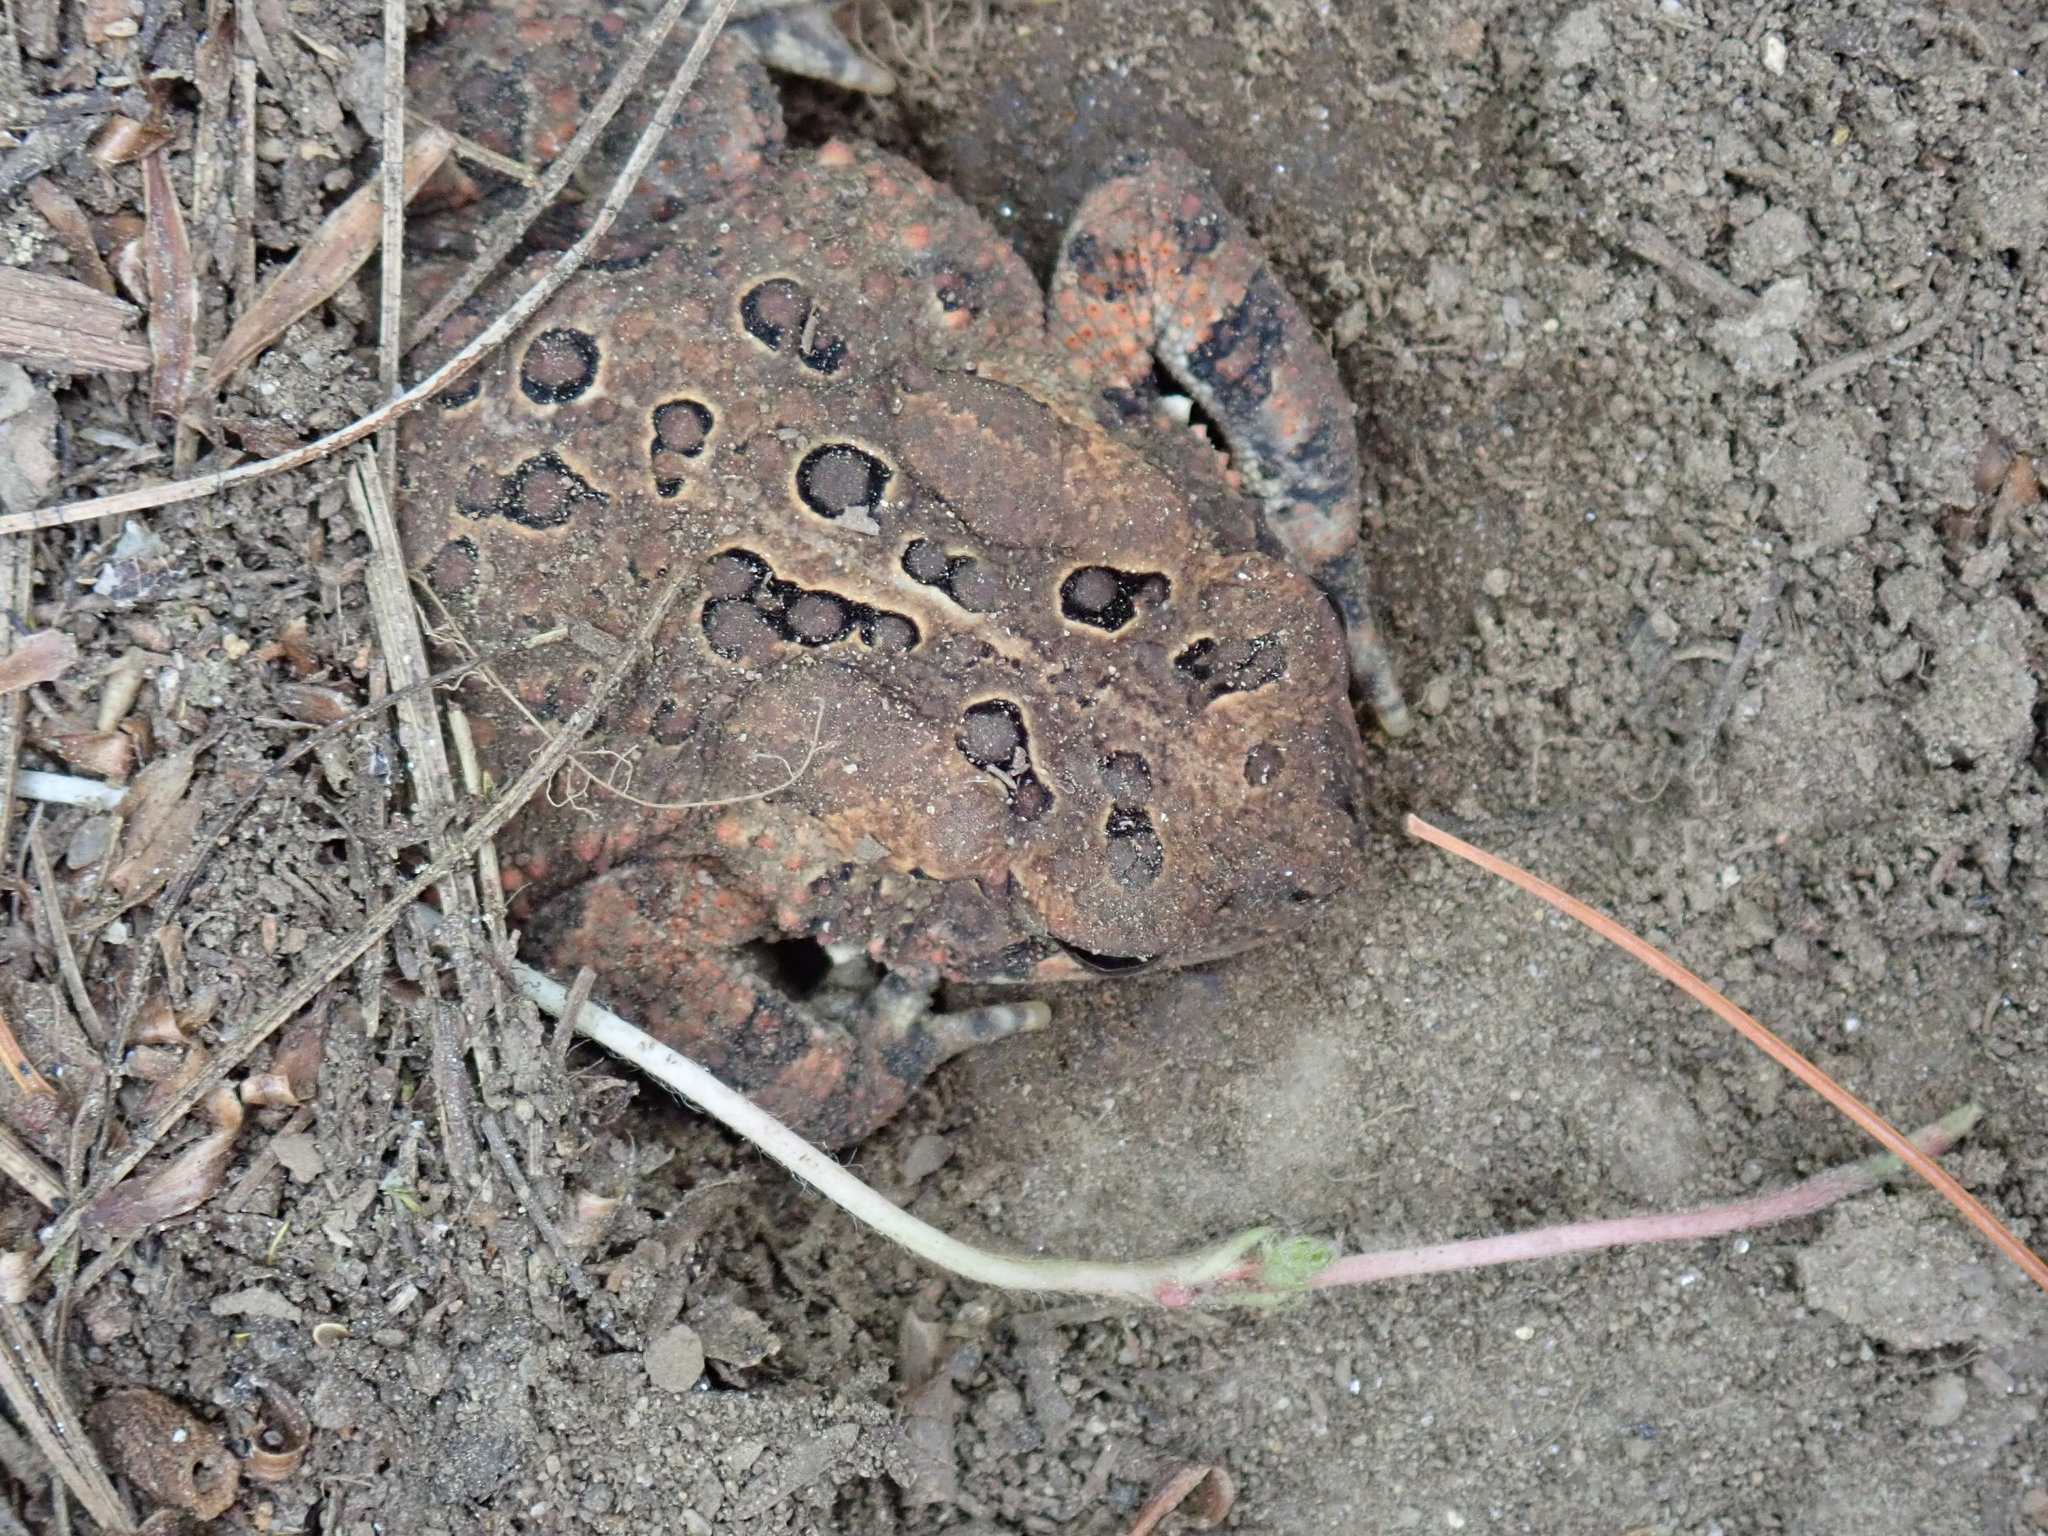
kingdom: Animalia
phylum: Chordata
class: Amphibia
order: Anura
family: Bufonidae
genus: Anaxyrus
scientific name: Anaxyrus americanus
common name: American toad
